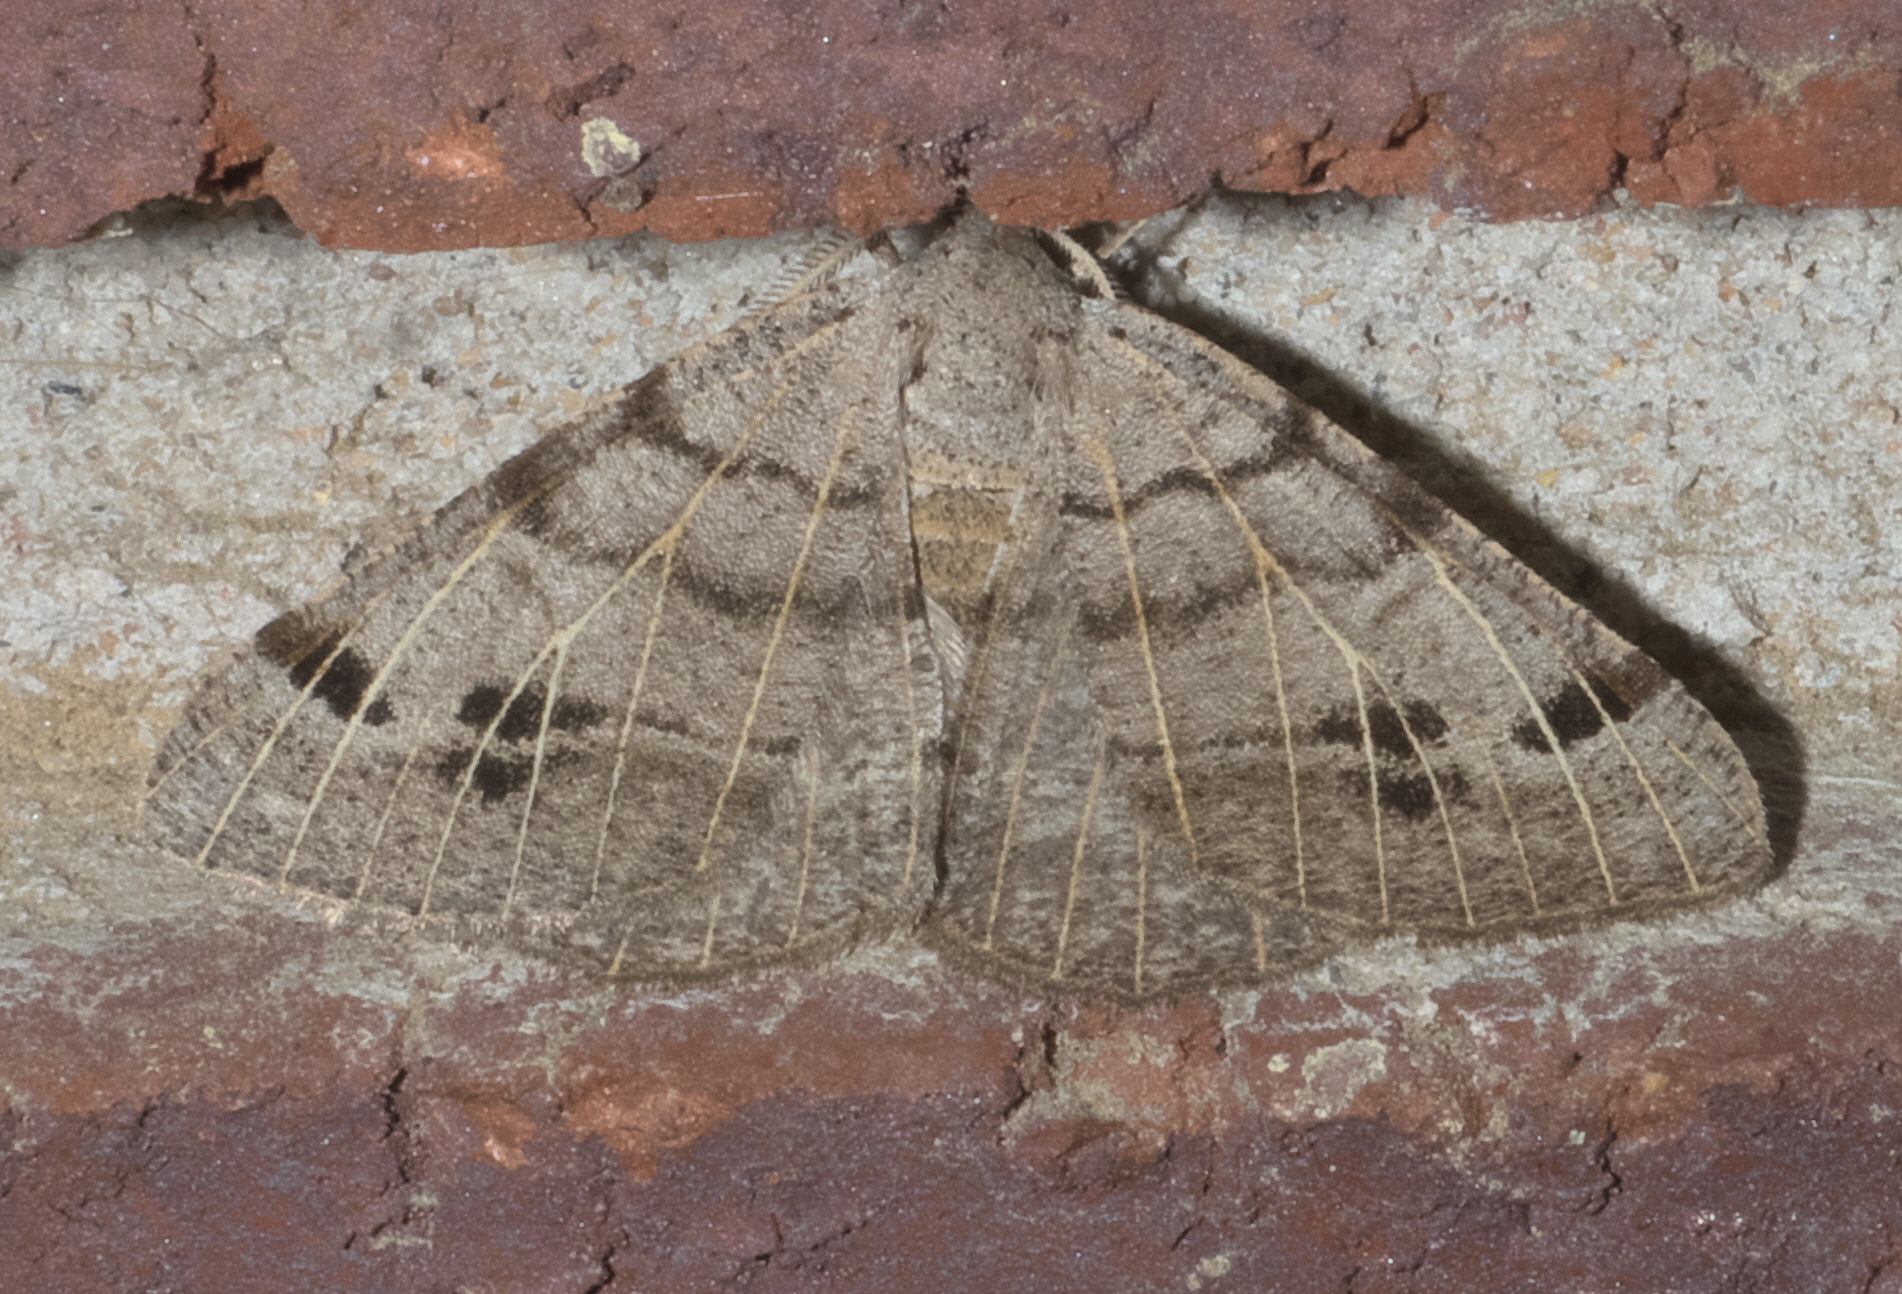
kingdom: Animalia
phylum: Arthropoda
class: Insecta
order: Lepidoptera
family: Geometridae
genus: Isturgia
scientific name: Isturgia dislocaria
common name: Pale-viened enconista
